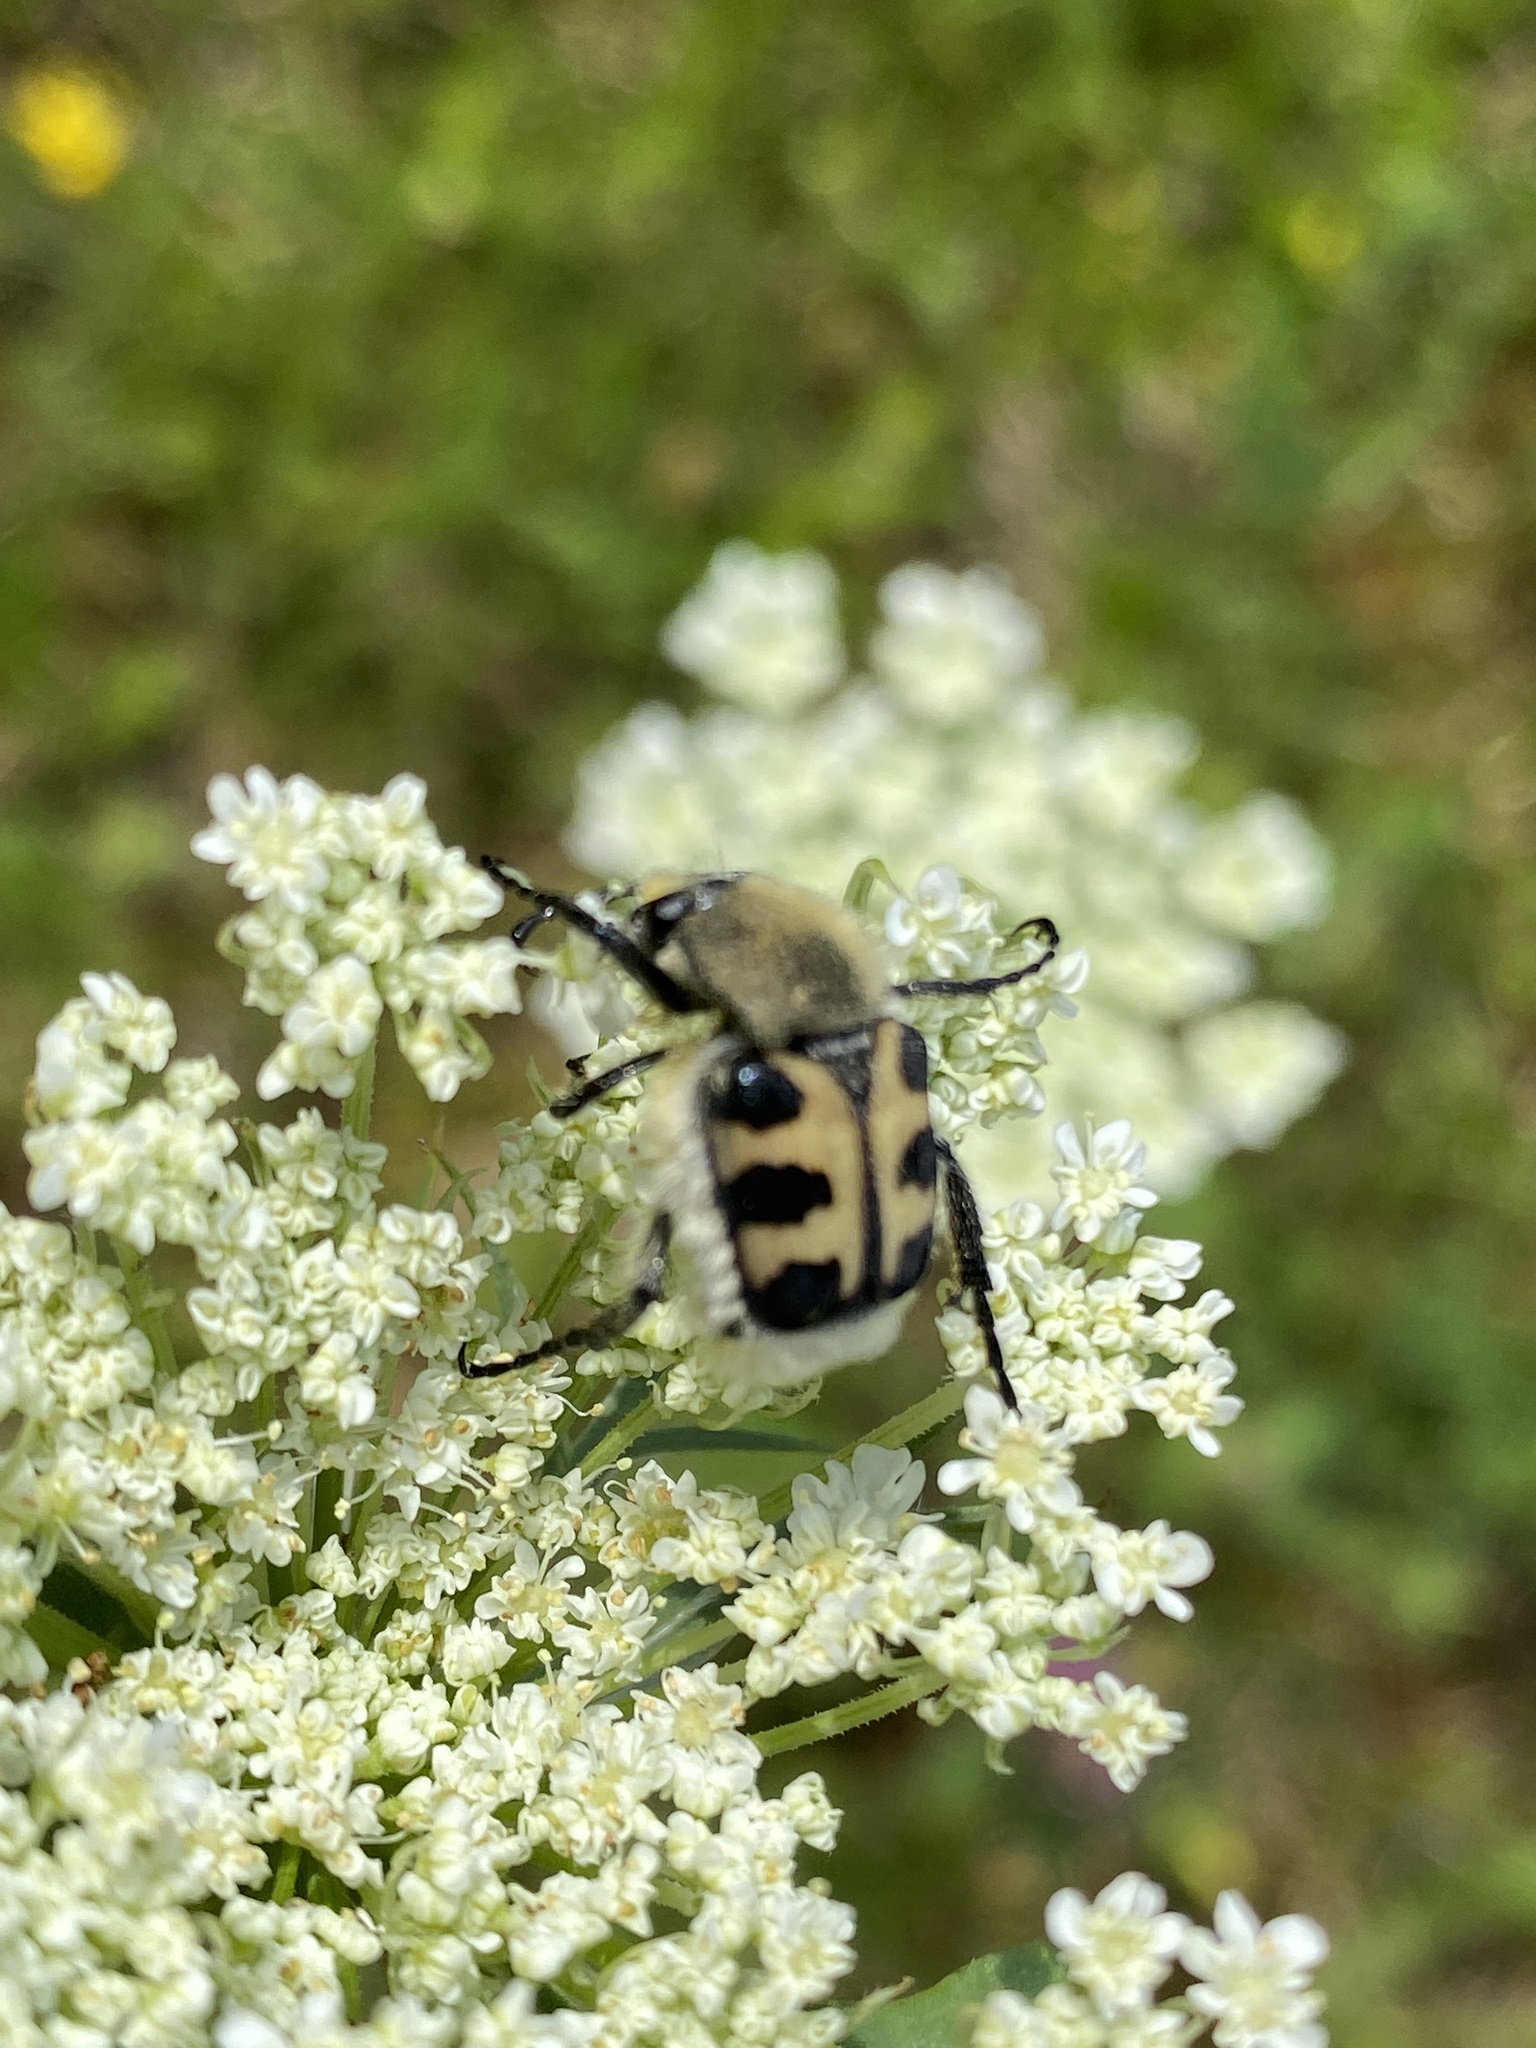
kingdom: Animalia
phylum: Arthropoda
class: Insecta
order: Coleoptera
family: Scarabaeidae
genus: Trichius
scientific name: Trichius gallicus
